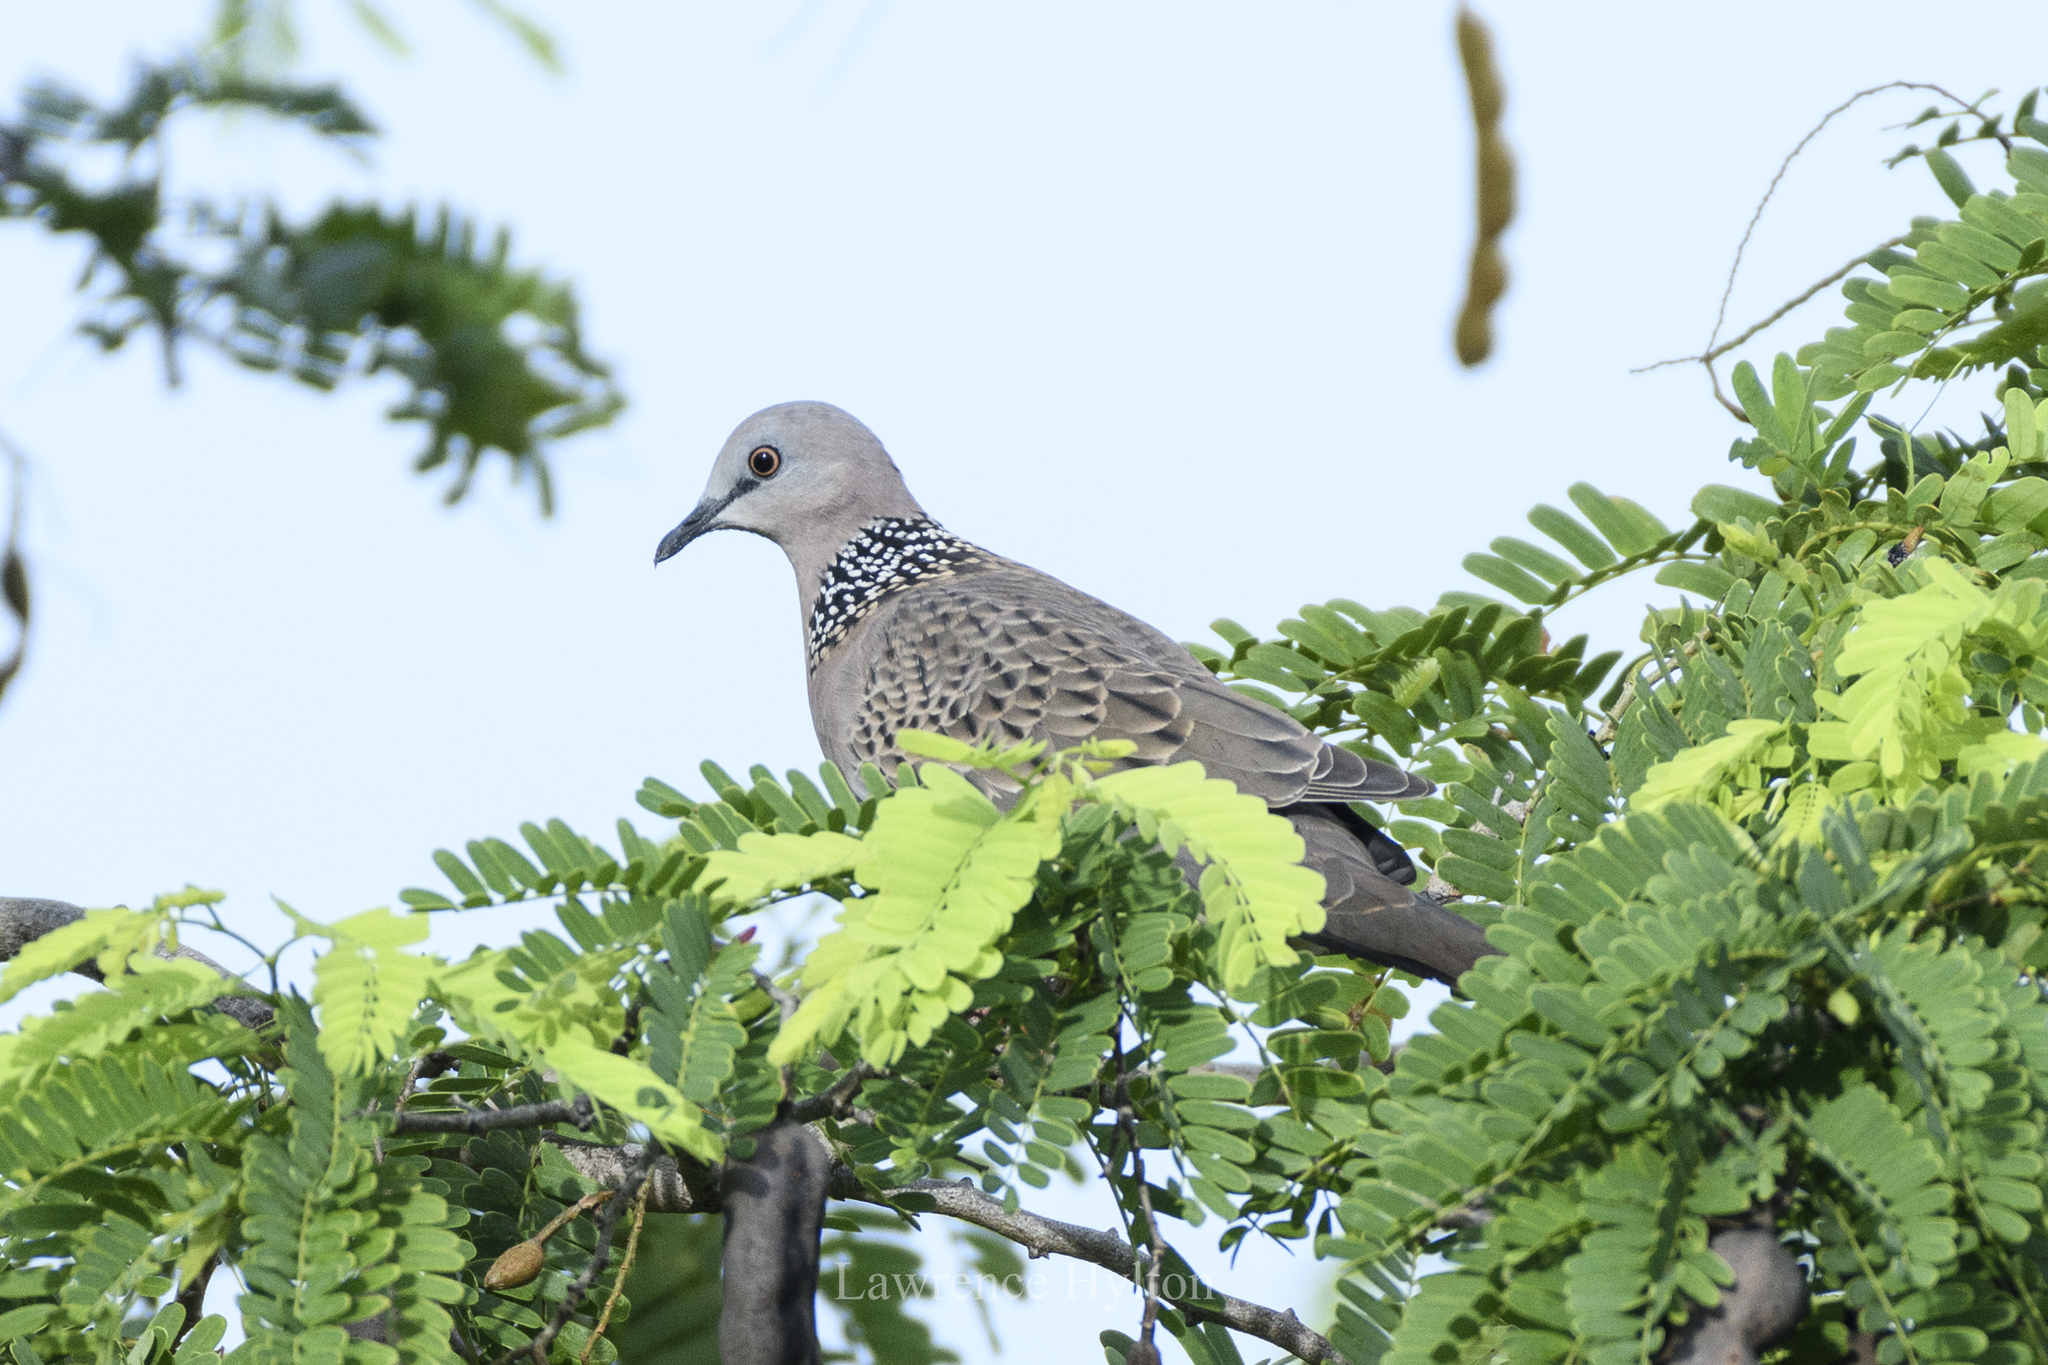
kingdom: Animalia
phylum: Chordata
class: Aves
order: Columbiformes
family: Columbidae
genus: Spilopelia
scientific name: Spilopelia chinensis
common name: Spotted dove
